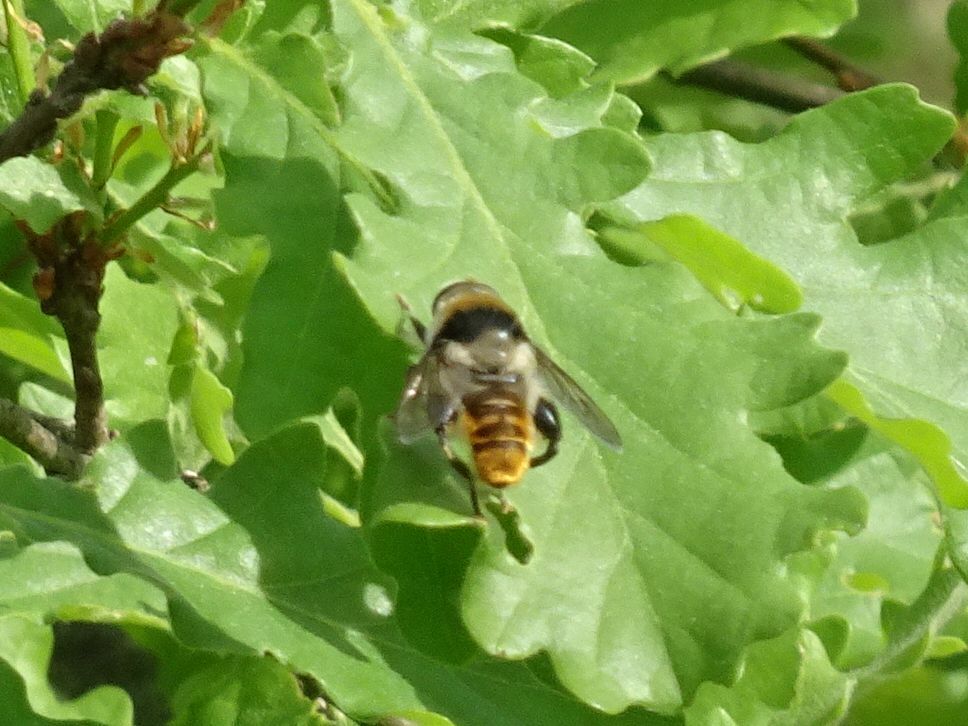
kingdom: Animalia
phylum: Arthropoda
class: Insecta
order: Diptera
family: Syrphidae
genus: Merodon
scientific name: Merodon clavipes
